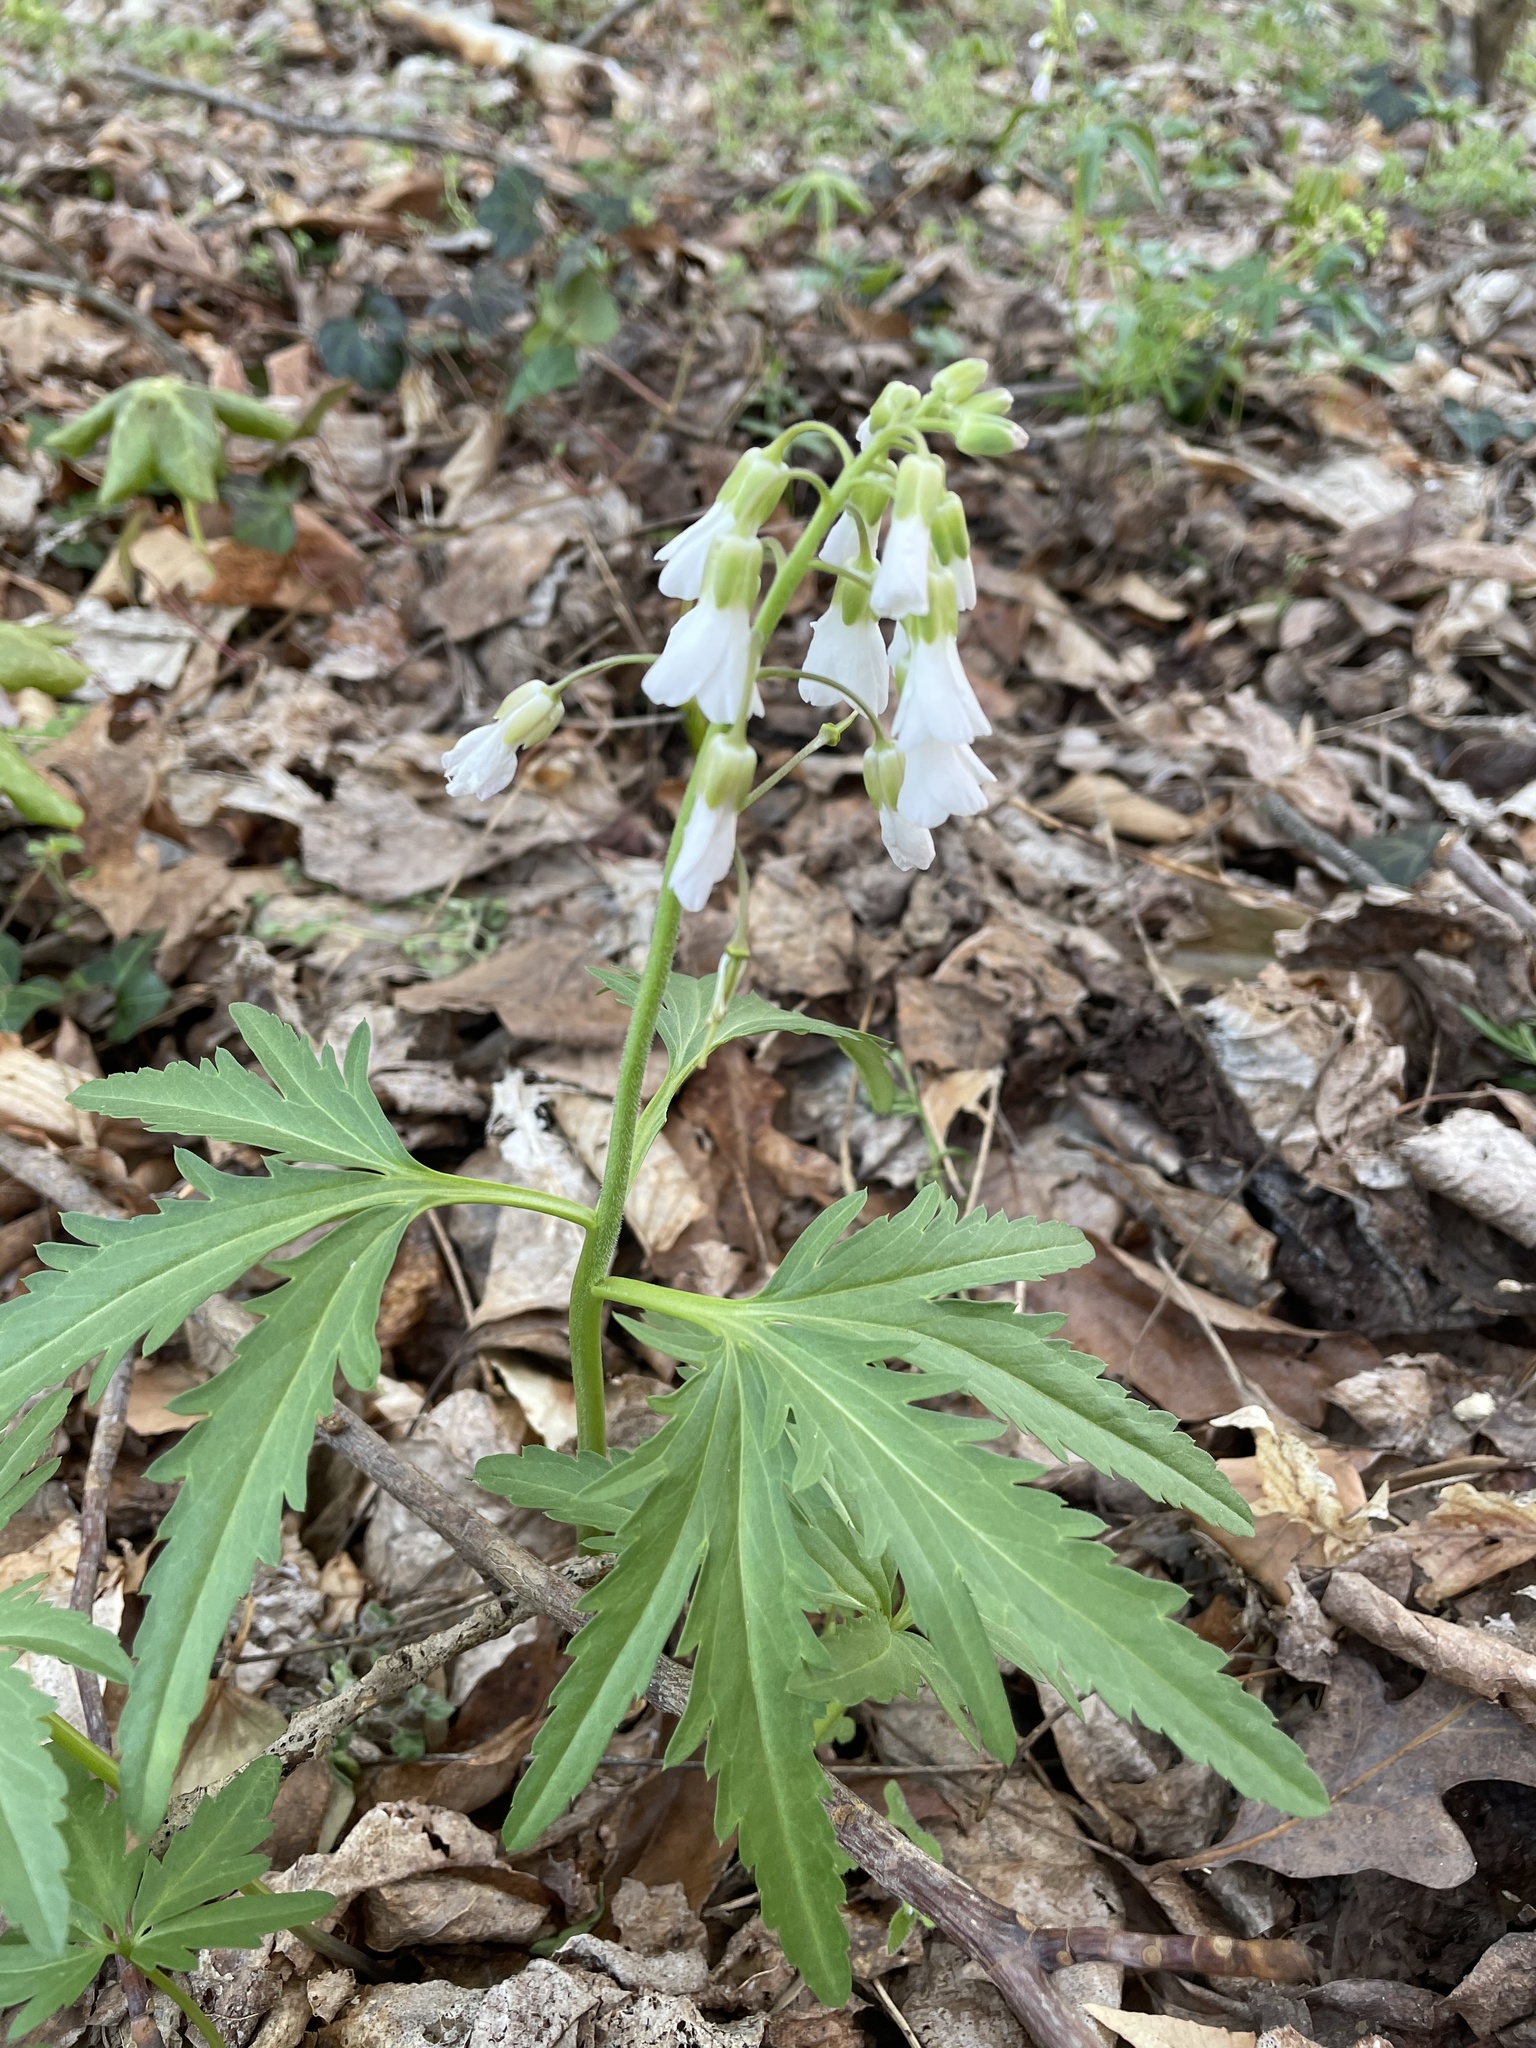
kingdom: Plantae
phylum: Tracheophyta
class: Magnoliopsida
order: Brassicales
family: Brassicaceae
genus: Cardamine
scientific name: Cardamine concatenata
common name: Cut-leaf toothcup
